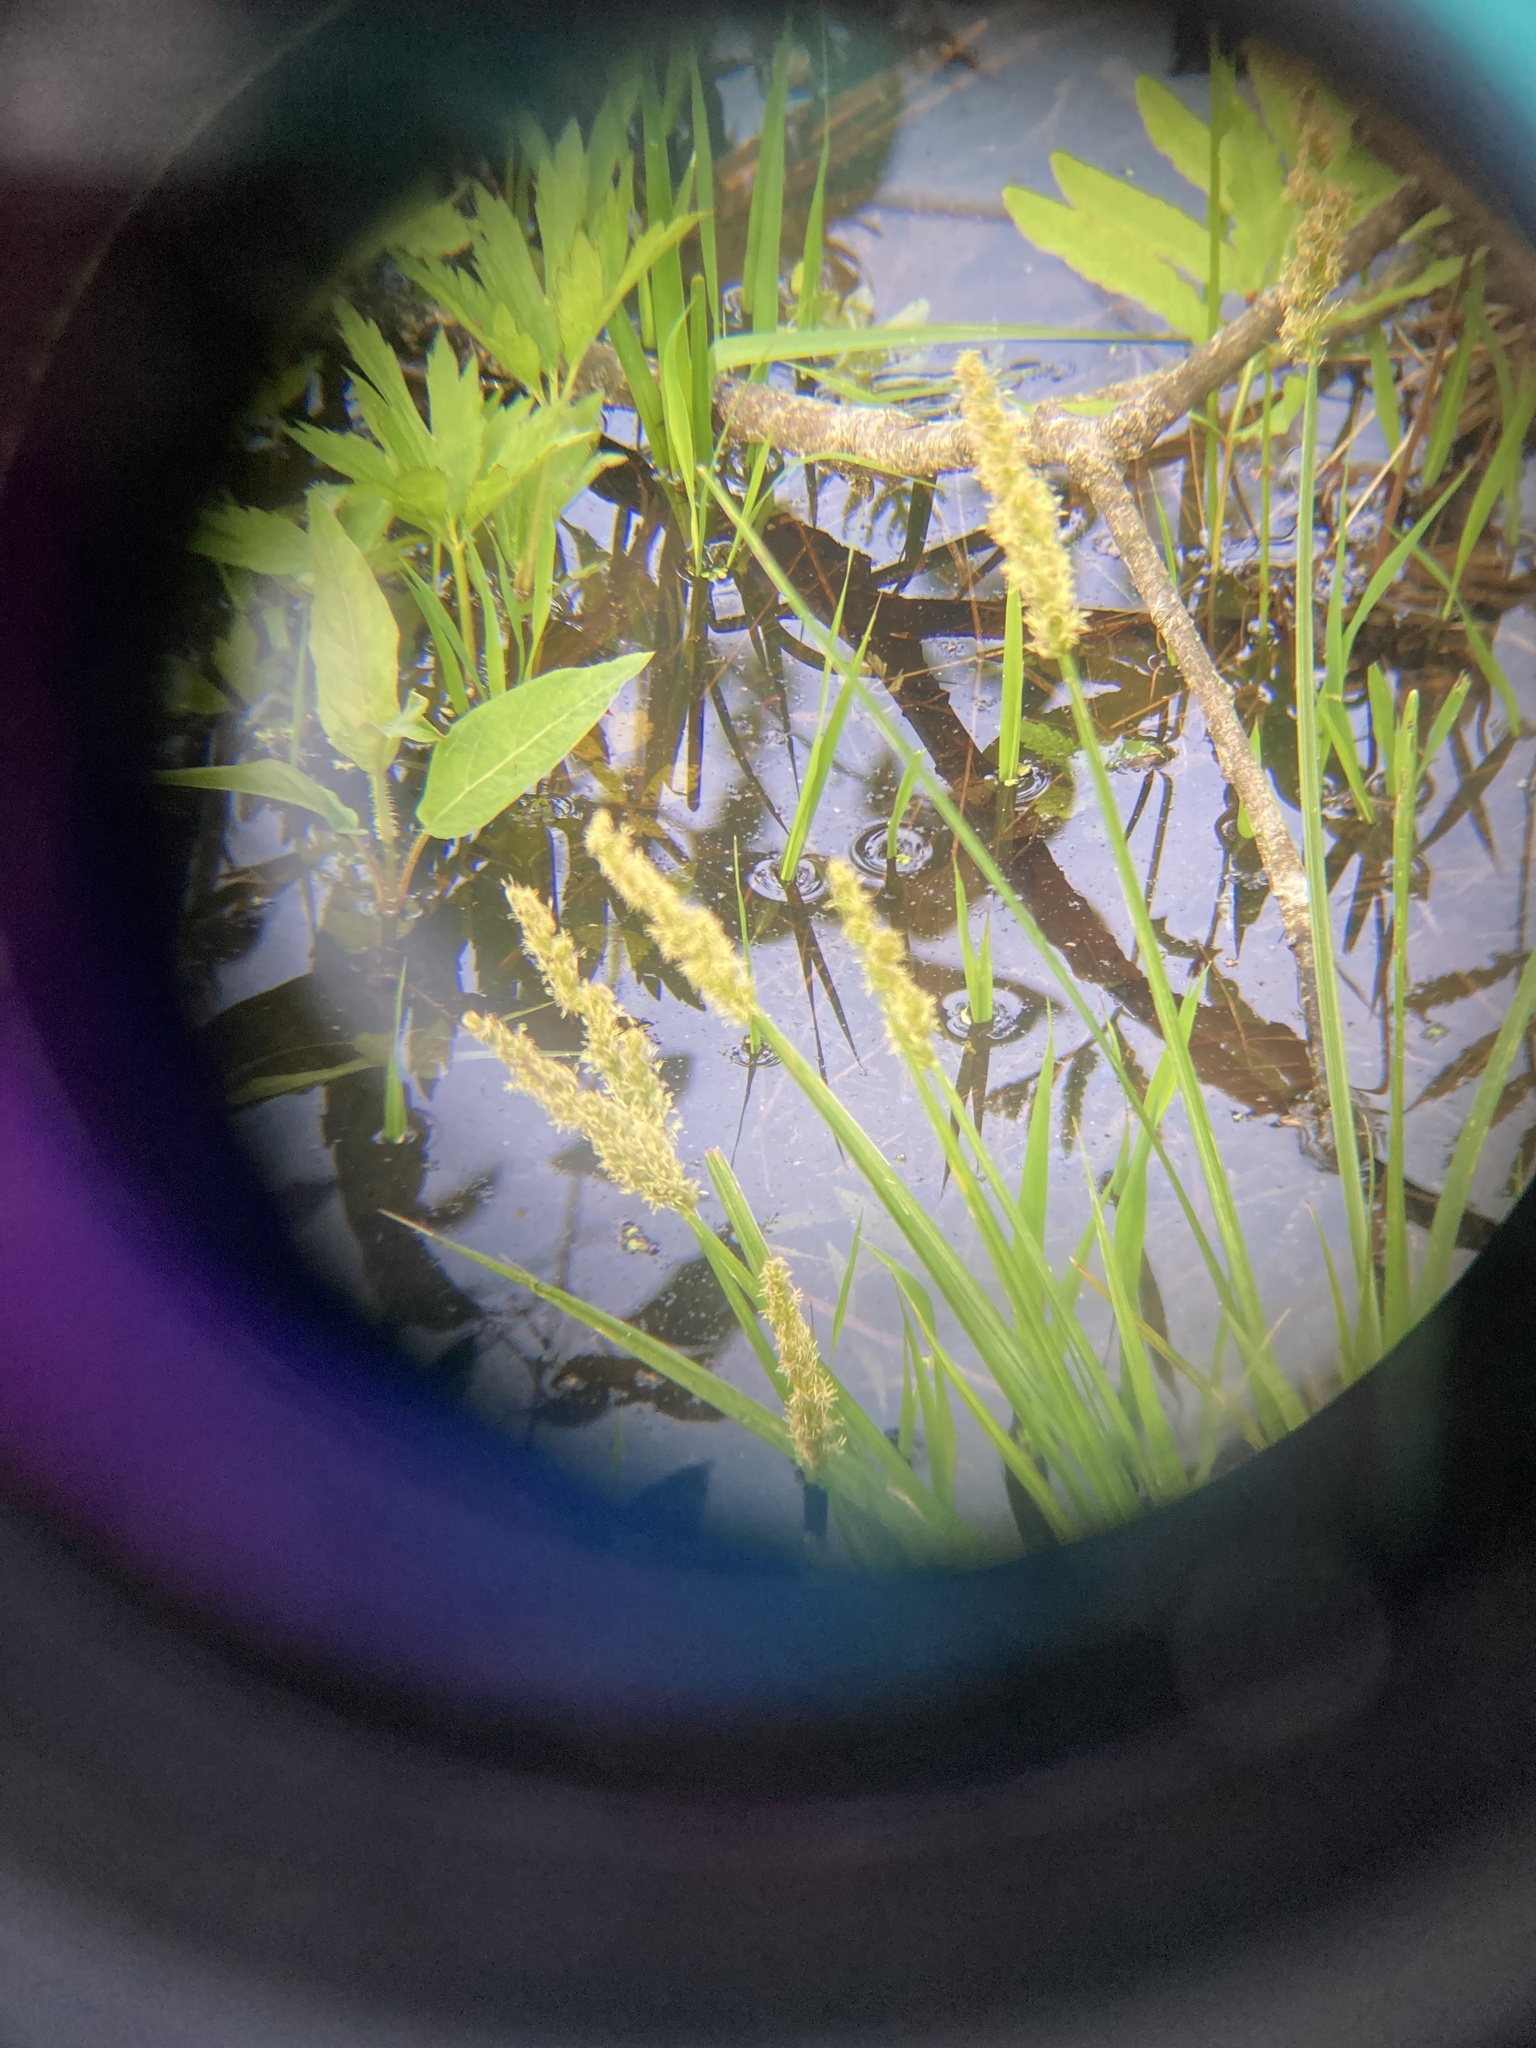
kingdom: Plantae
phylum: Tracheophyta
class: Liliopsida
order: Poales
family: Cyperaceae
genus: Carex
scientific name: Carex stipata
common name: Awl-fruited sedge
